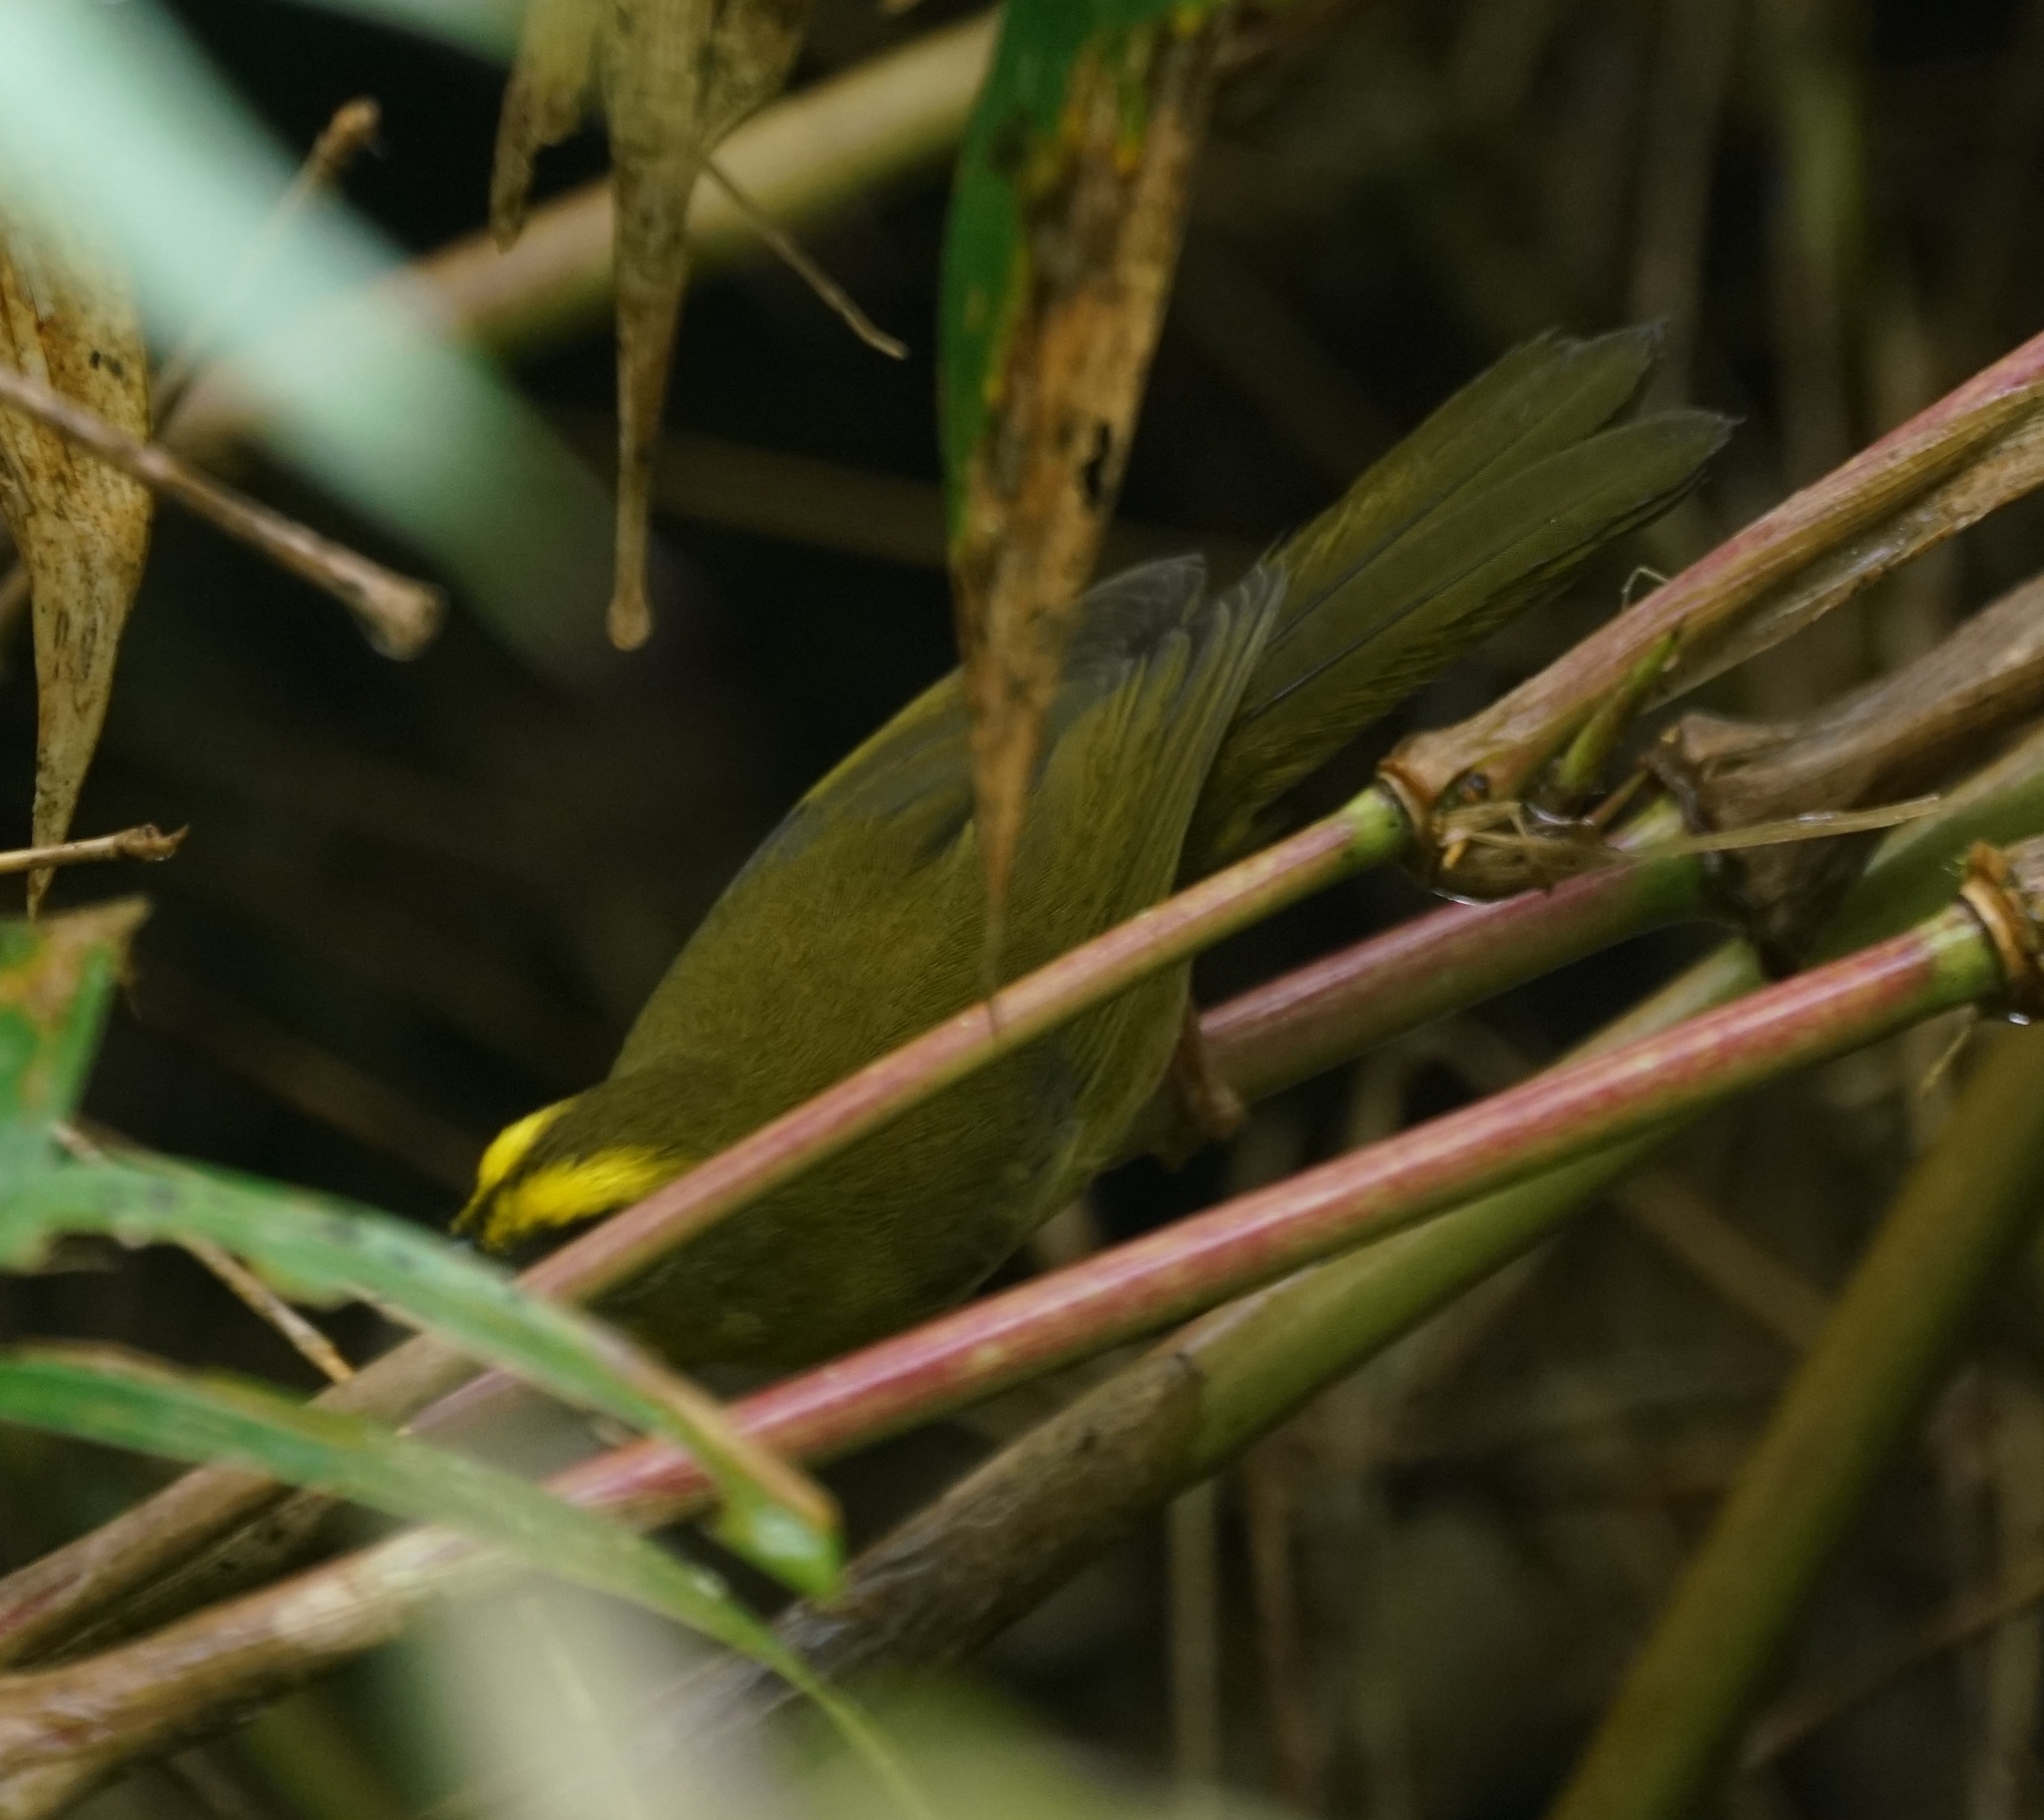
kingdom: Animalia
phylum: Chordata
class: Aves
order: Passeriformes
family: Parulidae
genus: Myiothlypis
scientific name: Myiothlypis luteoviridis
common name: Citrine warbler
